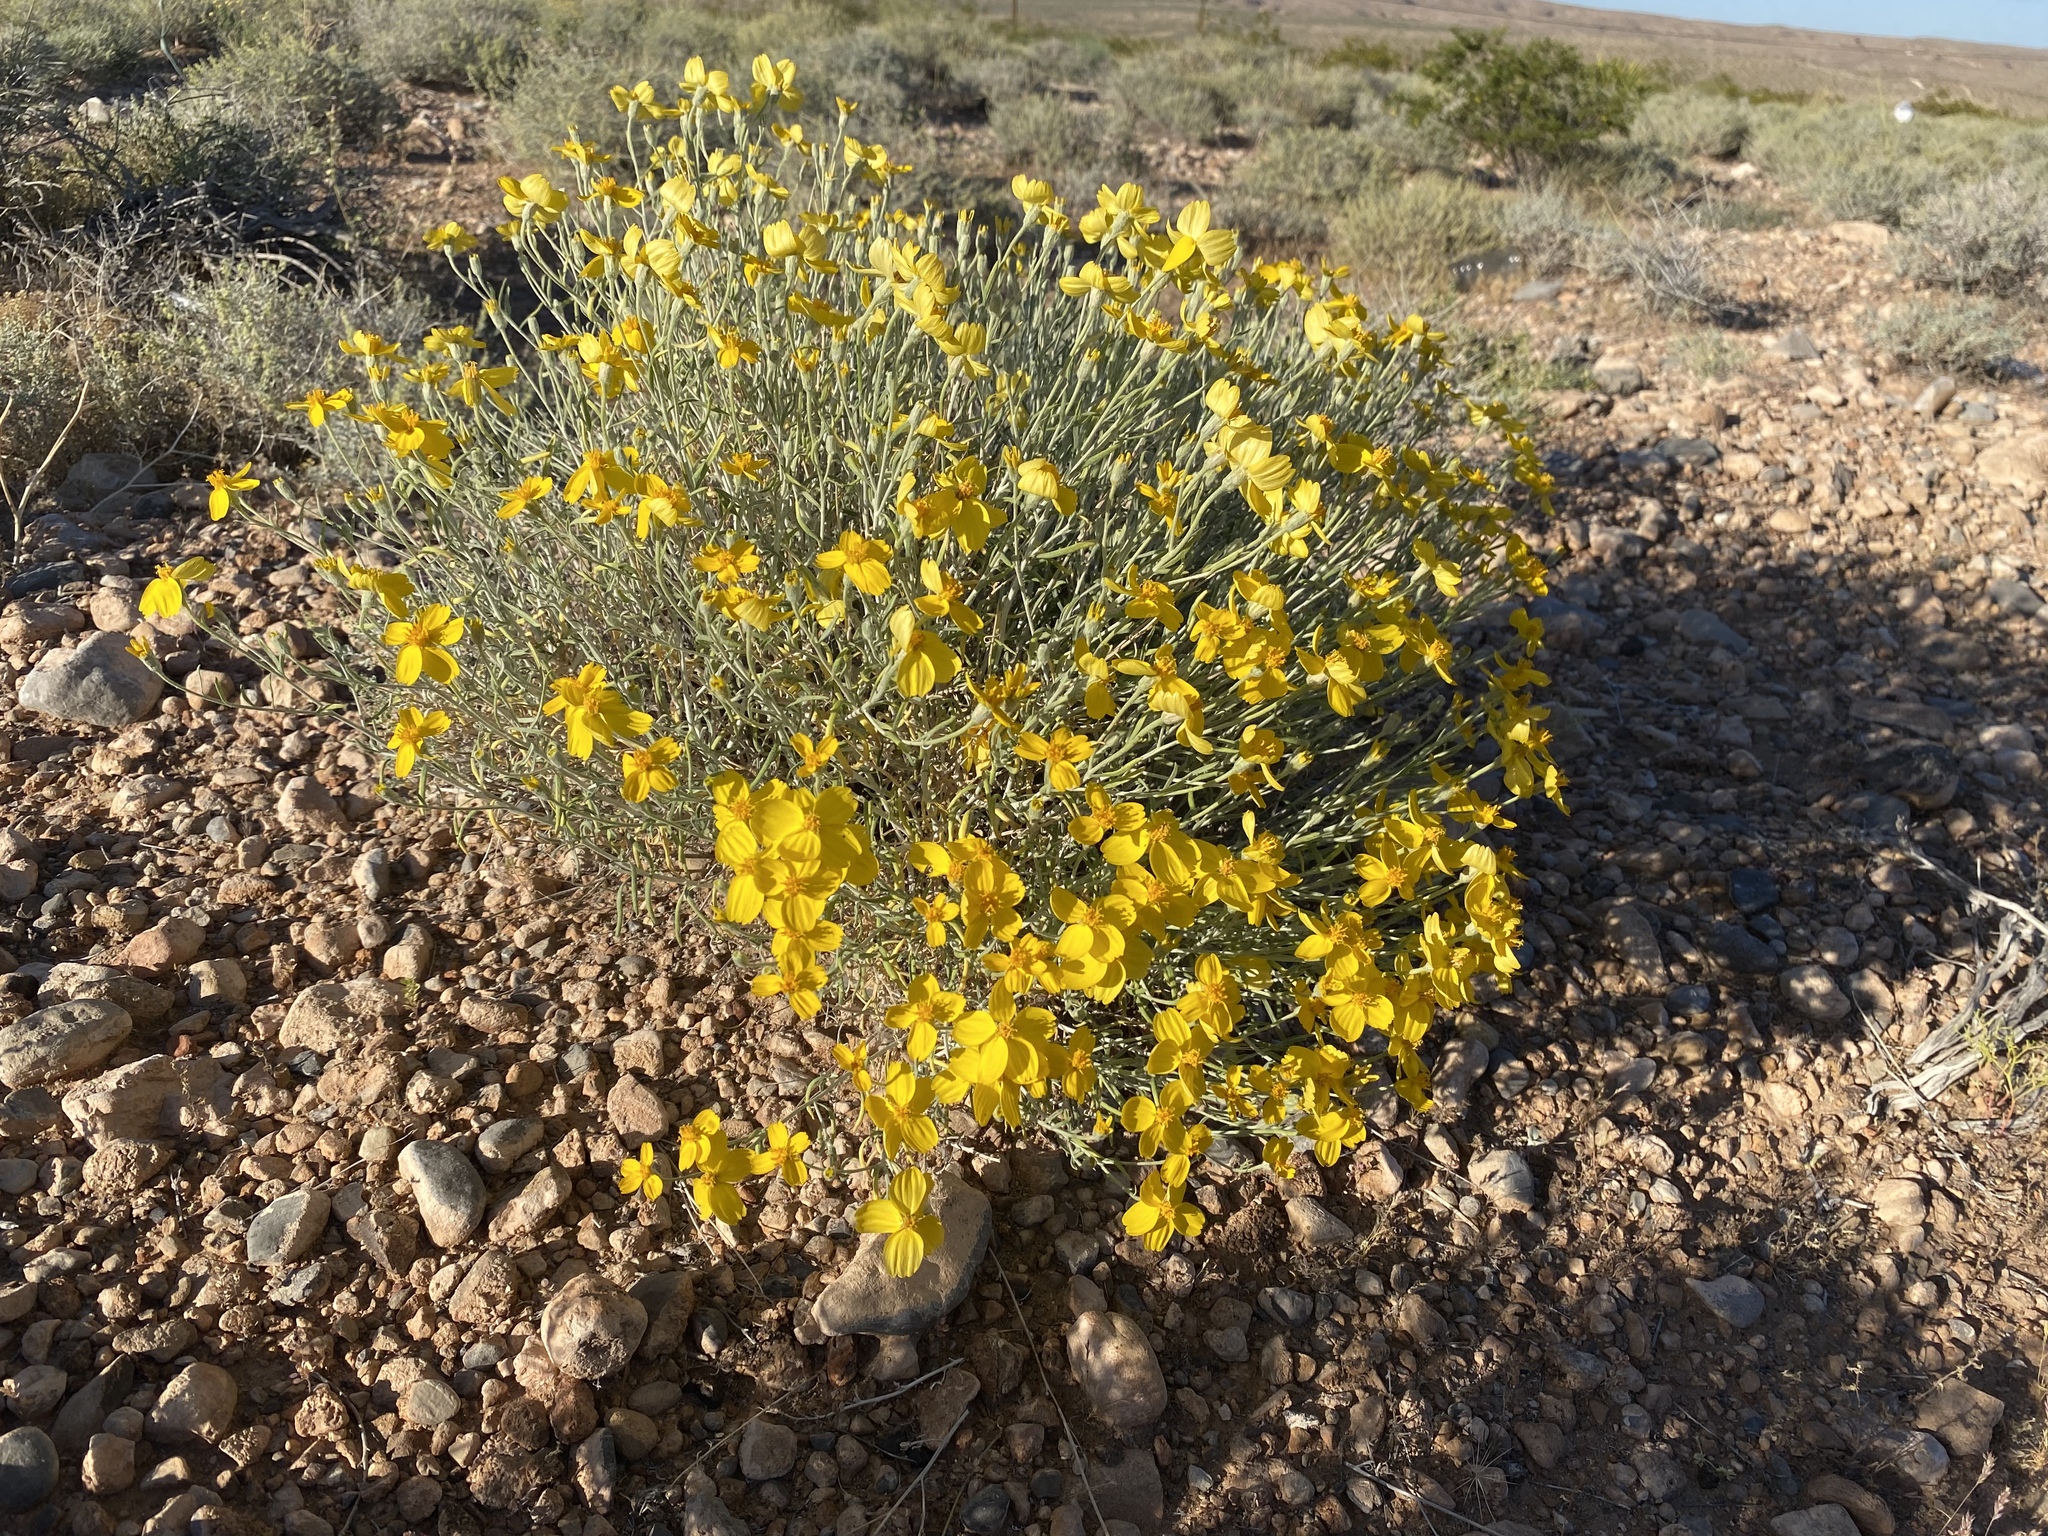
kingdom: Plantae
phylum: Tracheophyta
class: Magnoliopsida
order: Asterales
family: Asteraceae
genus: Psilostrophe
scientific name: Psilostrophe cooperi
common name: White-stem paper-flower
